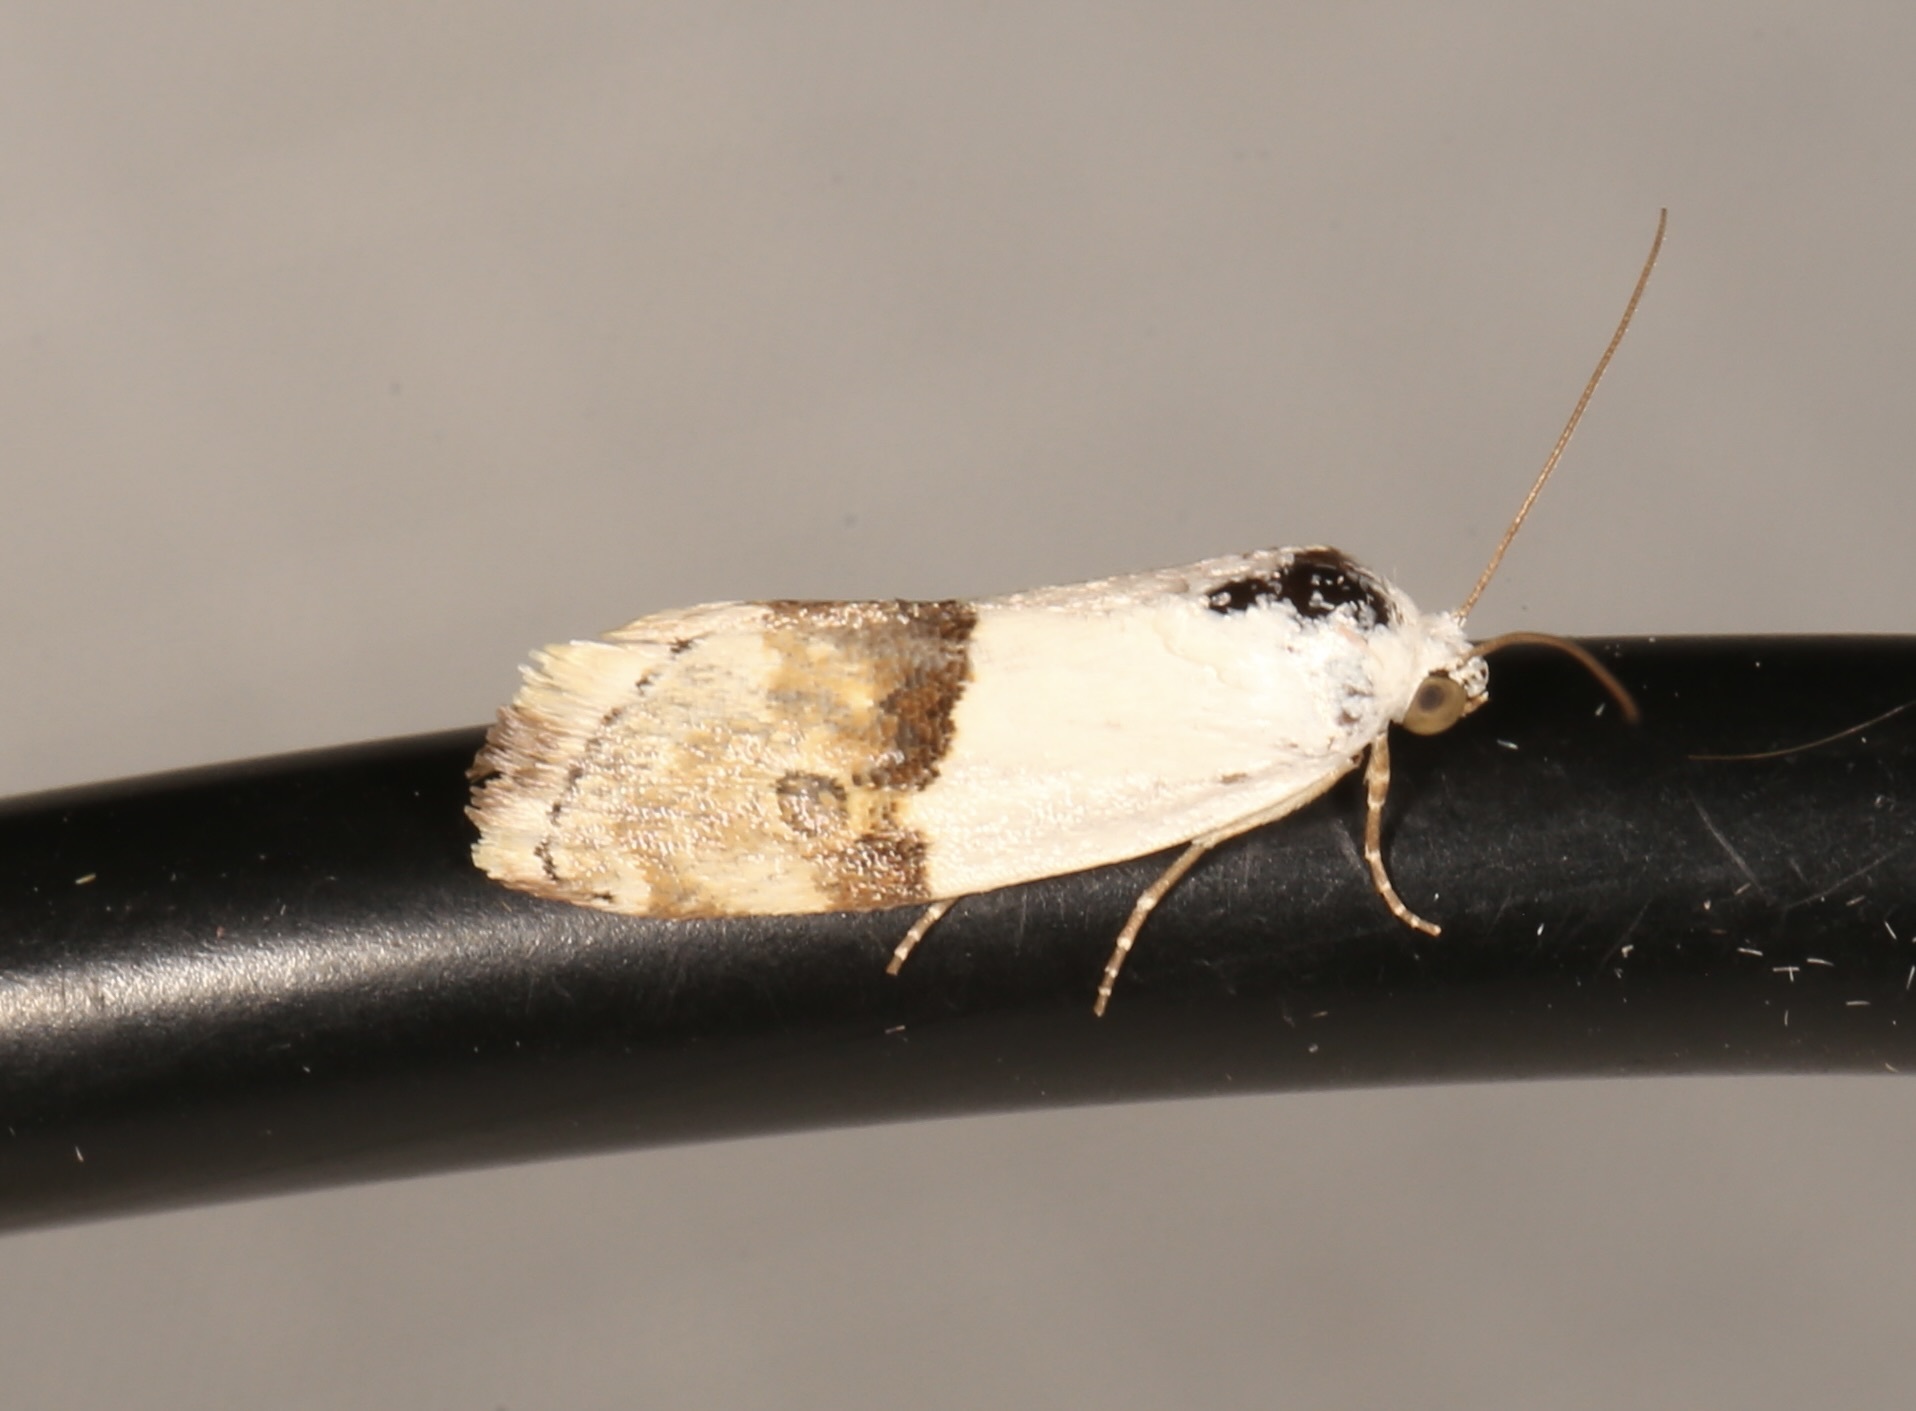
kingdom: Animalia
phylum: Arthropoda
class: Insecta
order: Lepidoptera
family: Noctuidae
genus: Ponometia
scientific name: Ponometia elegantula
